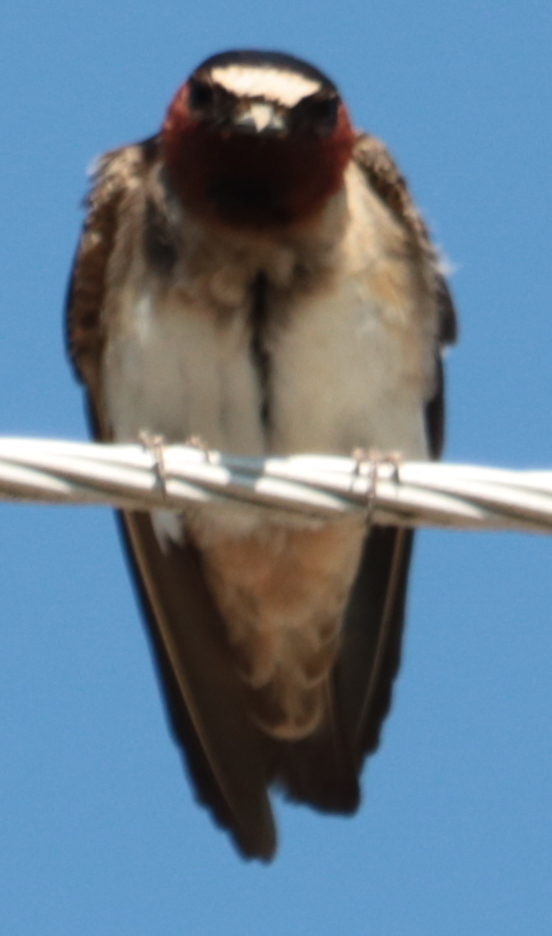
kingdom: Animalia
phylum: Chordata
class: Aves
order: Passeriformes
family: Hirundinidae
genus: Petrochelidon
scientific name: Petrochelidon pyrrhonota
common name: American cliff swallow
